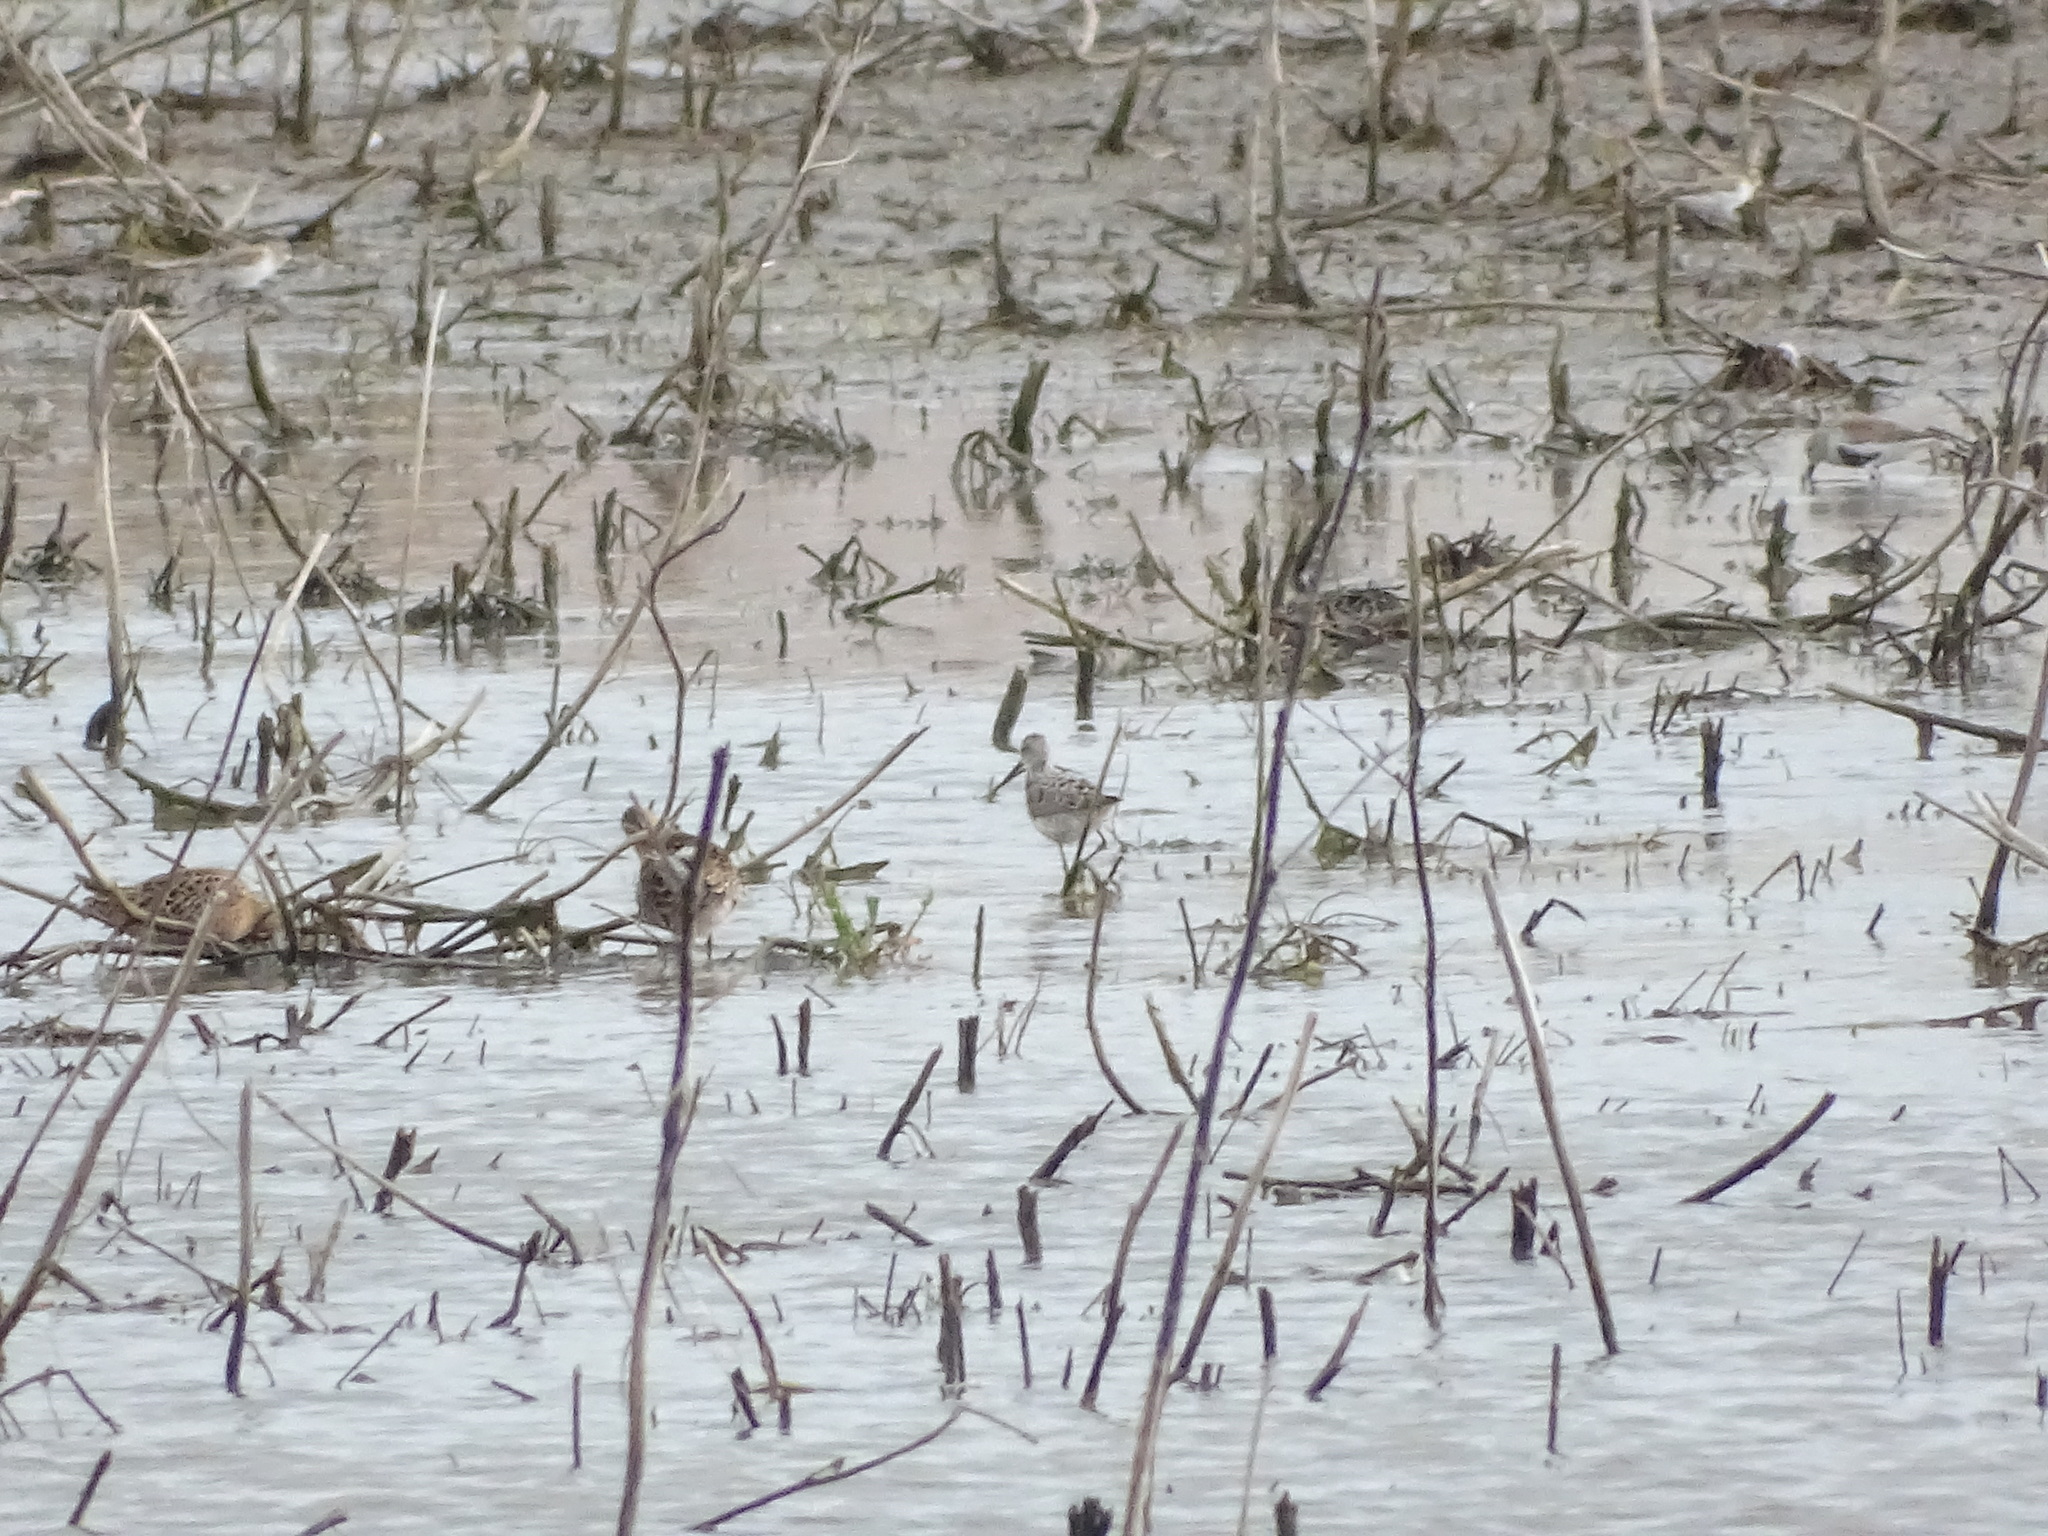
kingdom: Animalia
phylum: Chordata
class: Aves
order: Charadriiformes
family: Scolopacidae
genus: Calidris
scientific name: Calidris himantopus
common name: Stilt sandpiper
